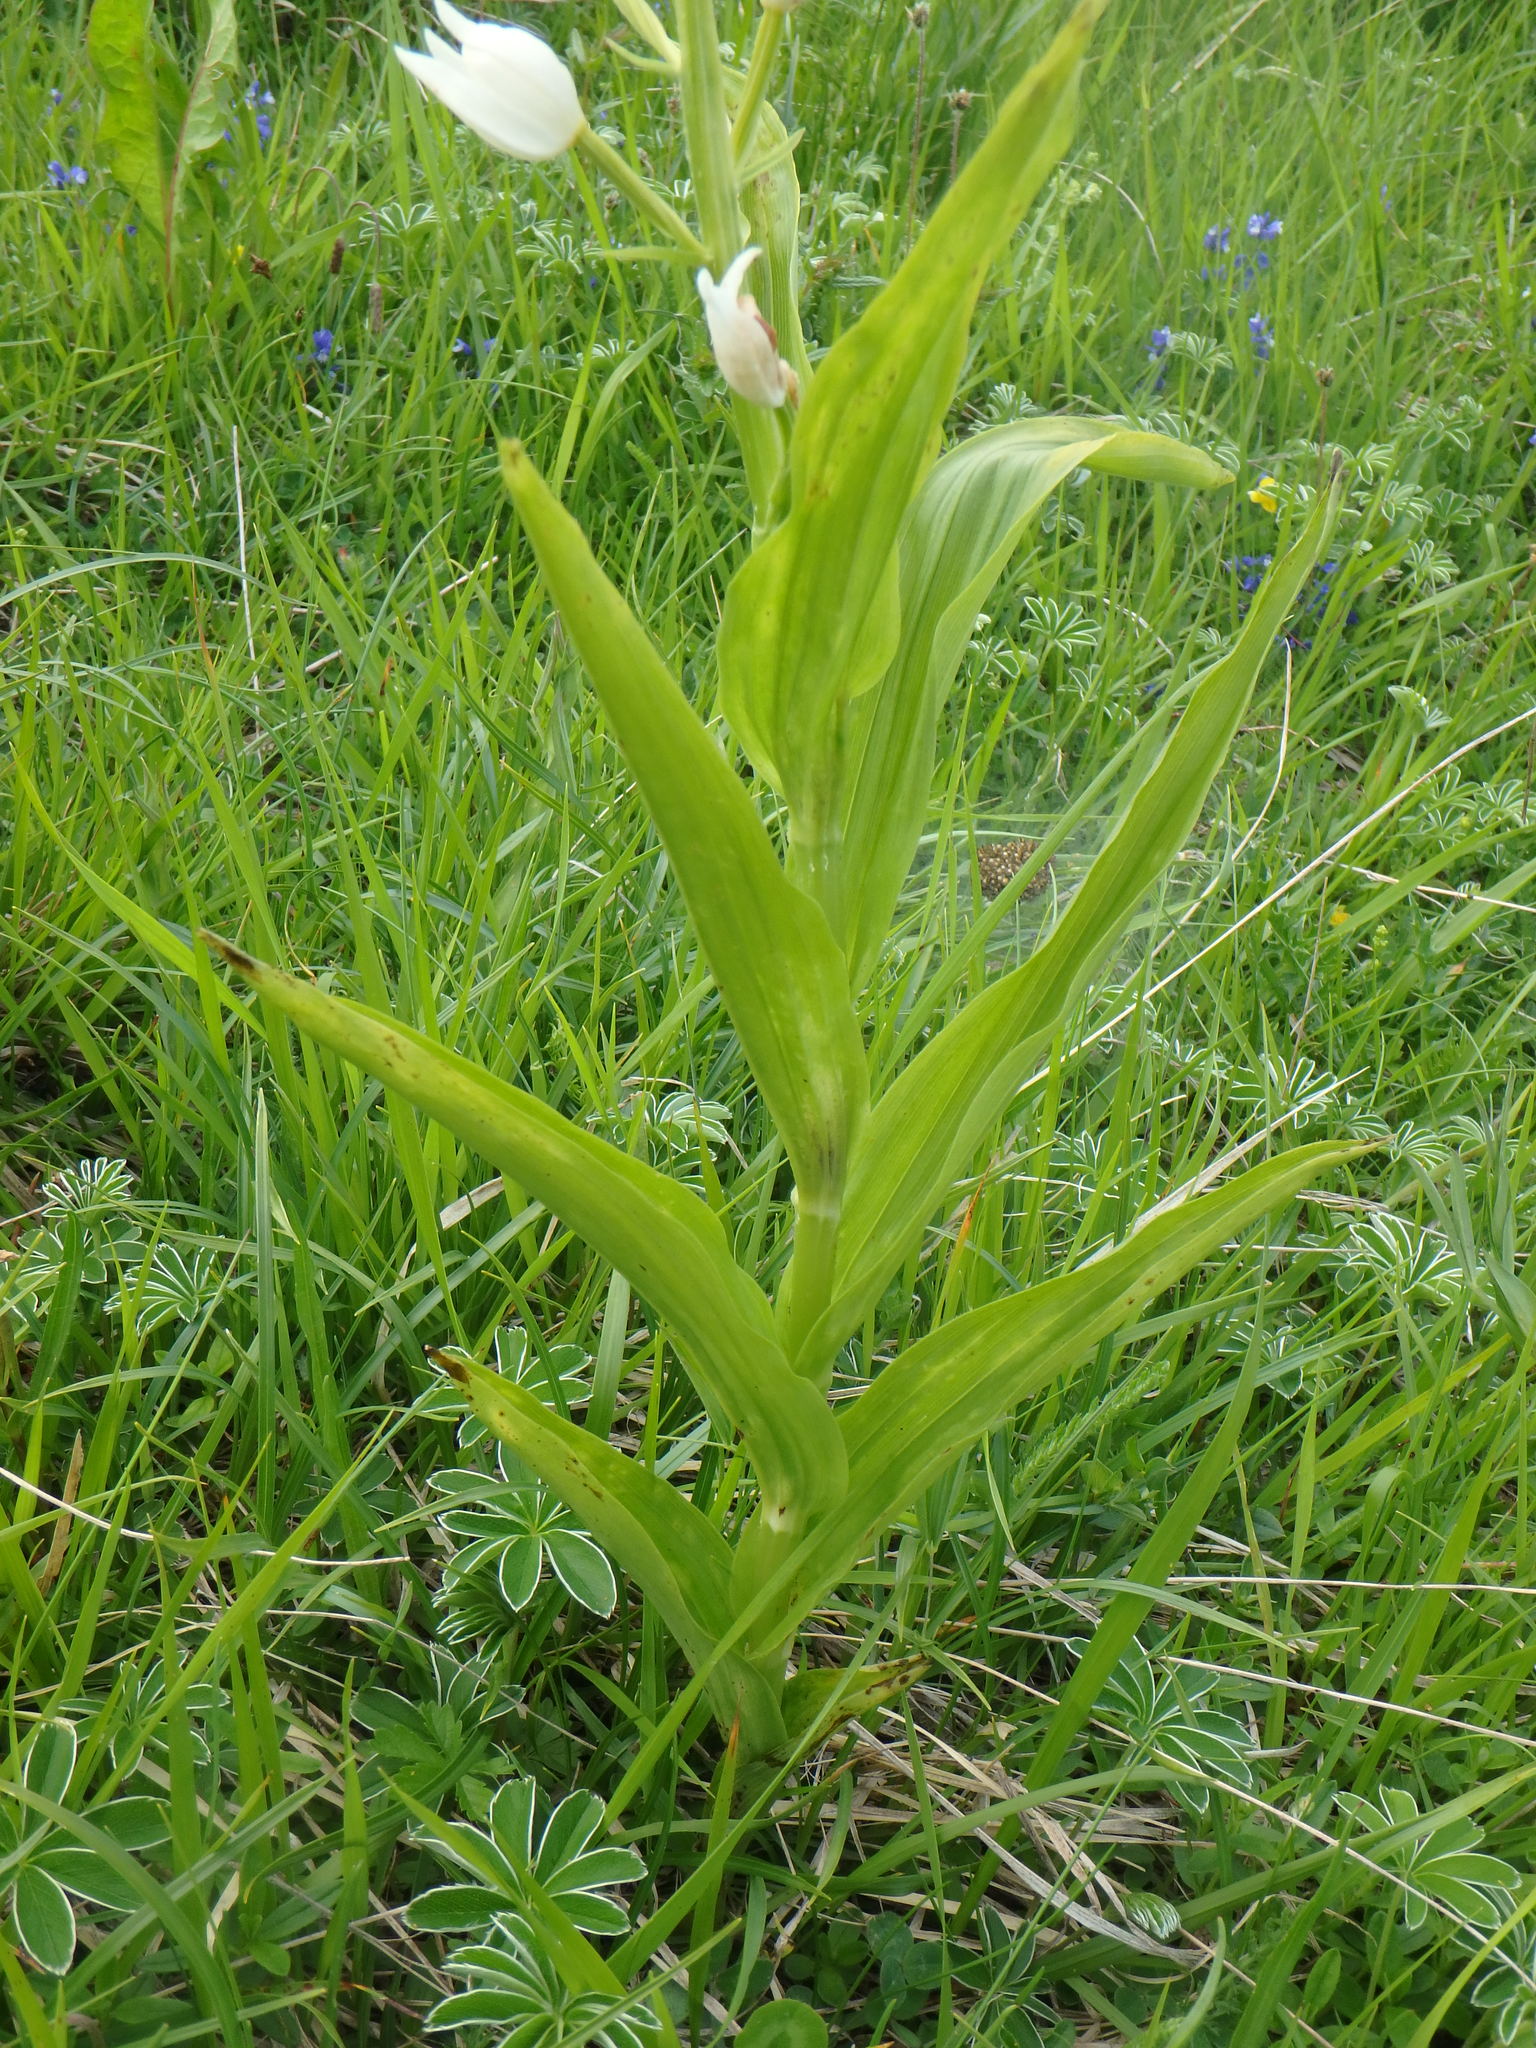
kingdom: Plantae
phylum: Tracheophyta
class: Liliopsida
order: Asparagales
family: Orchidaceae
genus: Cephalanthera
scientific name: Cephalanthera longifolia
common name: Narrow-leaved helleborine
